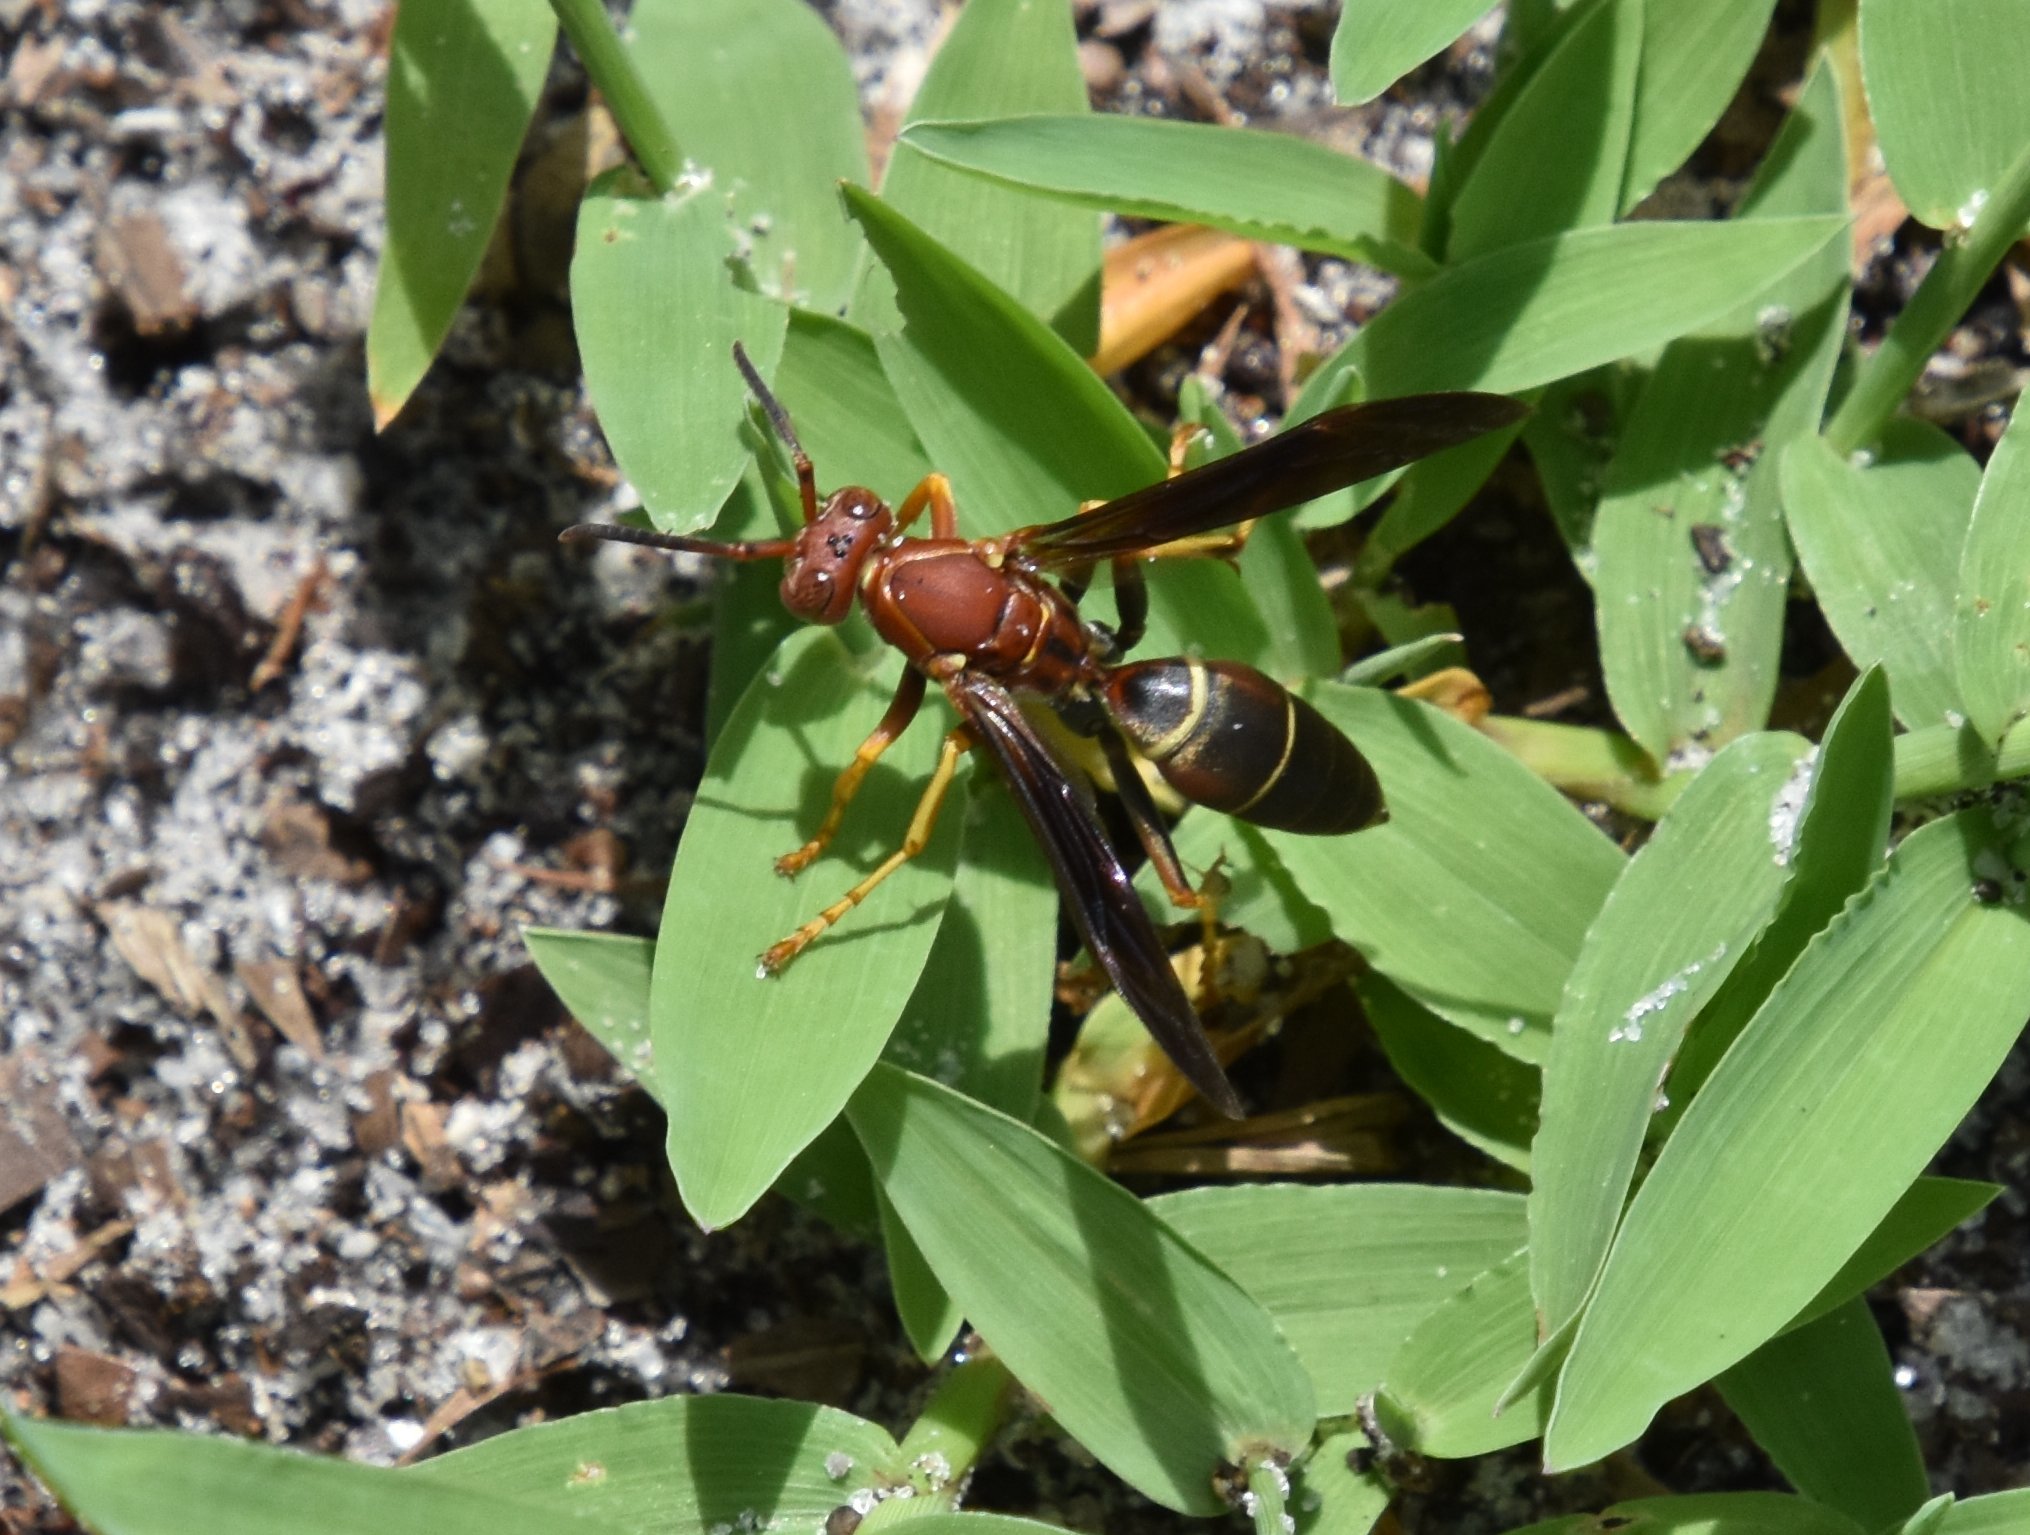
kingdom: Animalia
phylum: Arthropoda
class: Insecta
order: Hymenoptera
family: Eumenidae
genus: Polistes
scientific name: Polistes fuscatus
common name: Dark paper wasp
